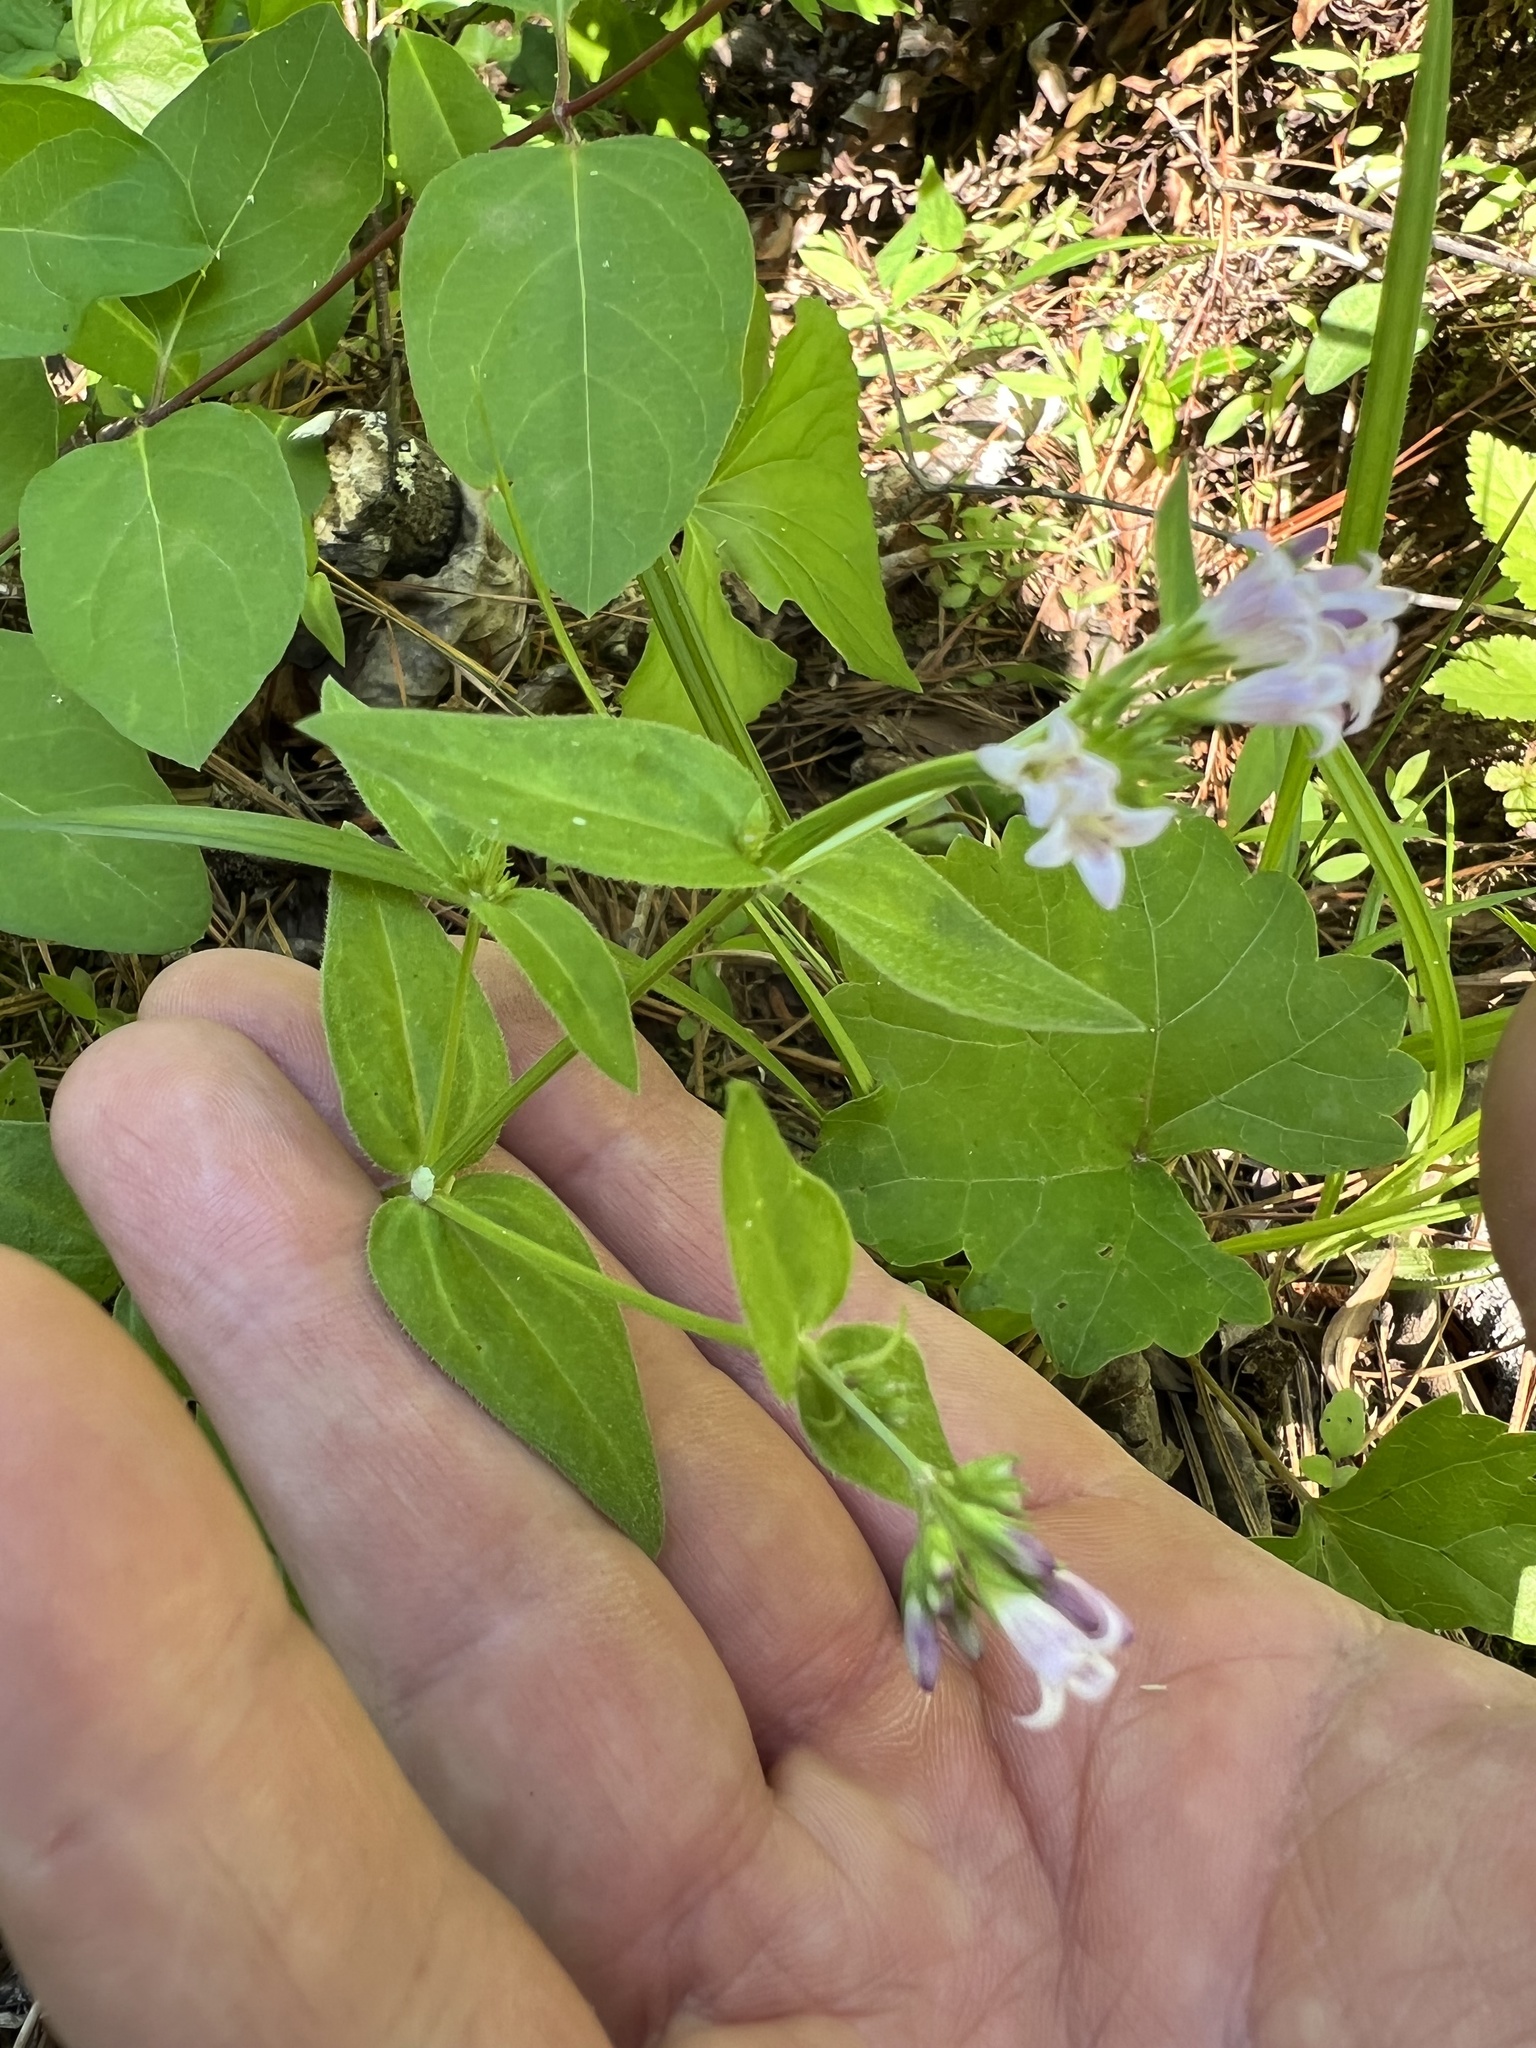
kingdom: Plantae
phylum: Tracheophyta
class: Magnoliopsida
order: Gentianales
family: Rubiaceae
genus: Houstonia
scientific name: Houstonia purpurea
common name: Summer bluet
